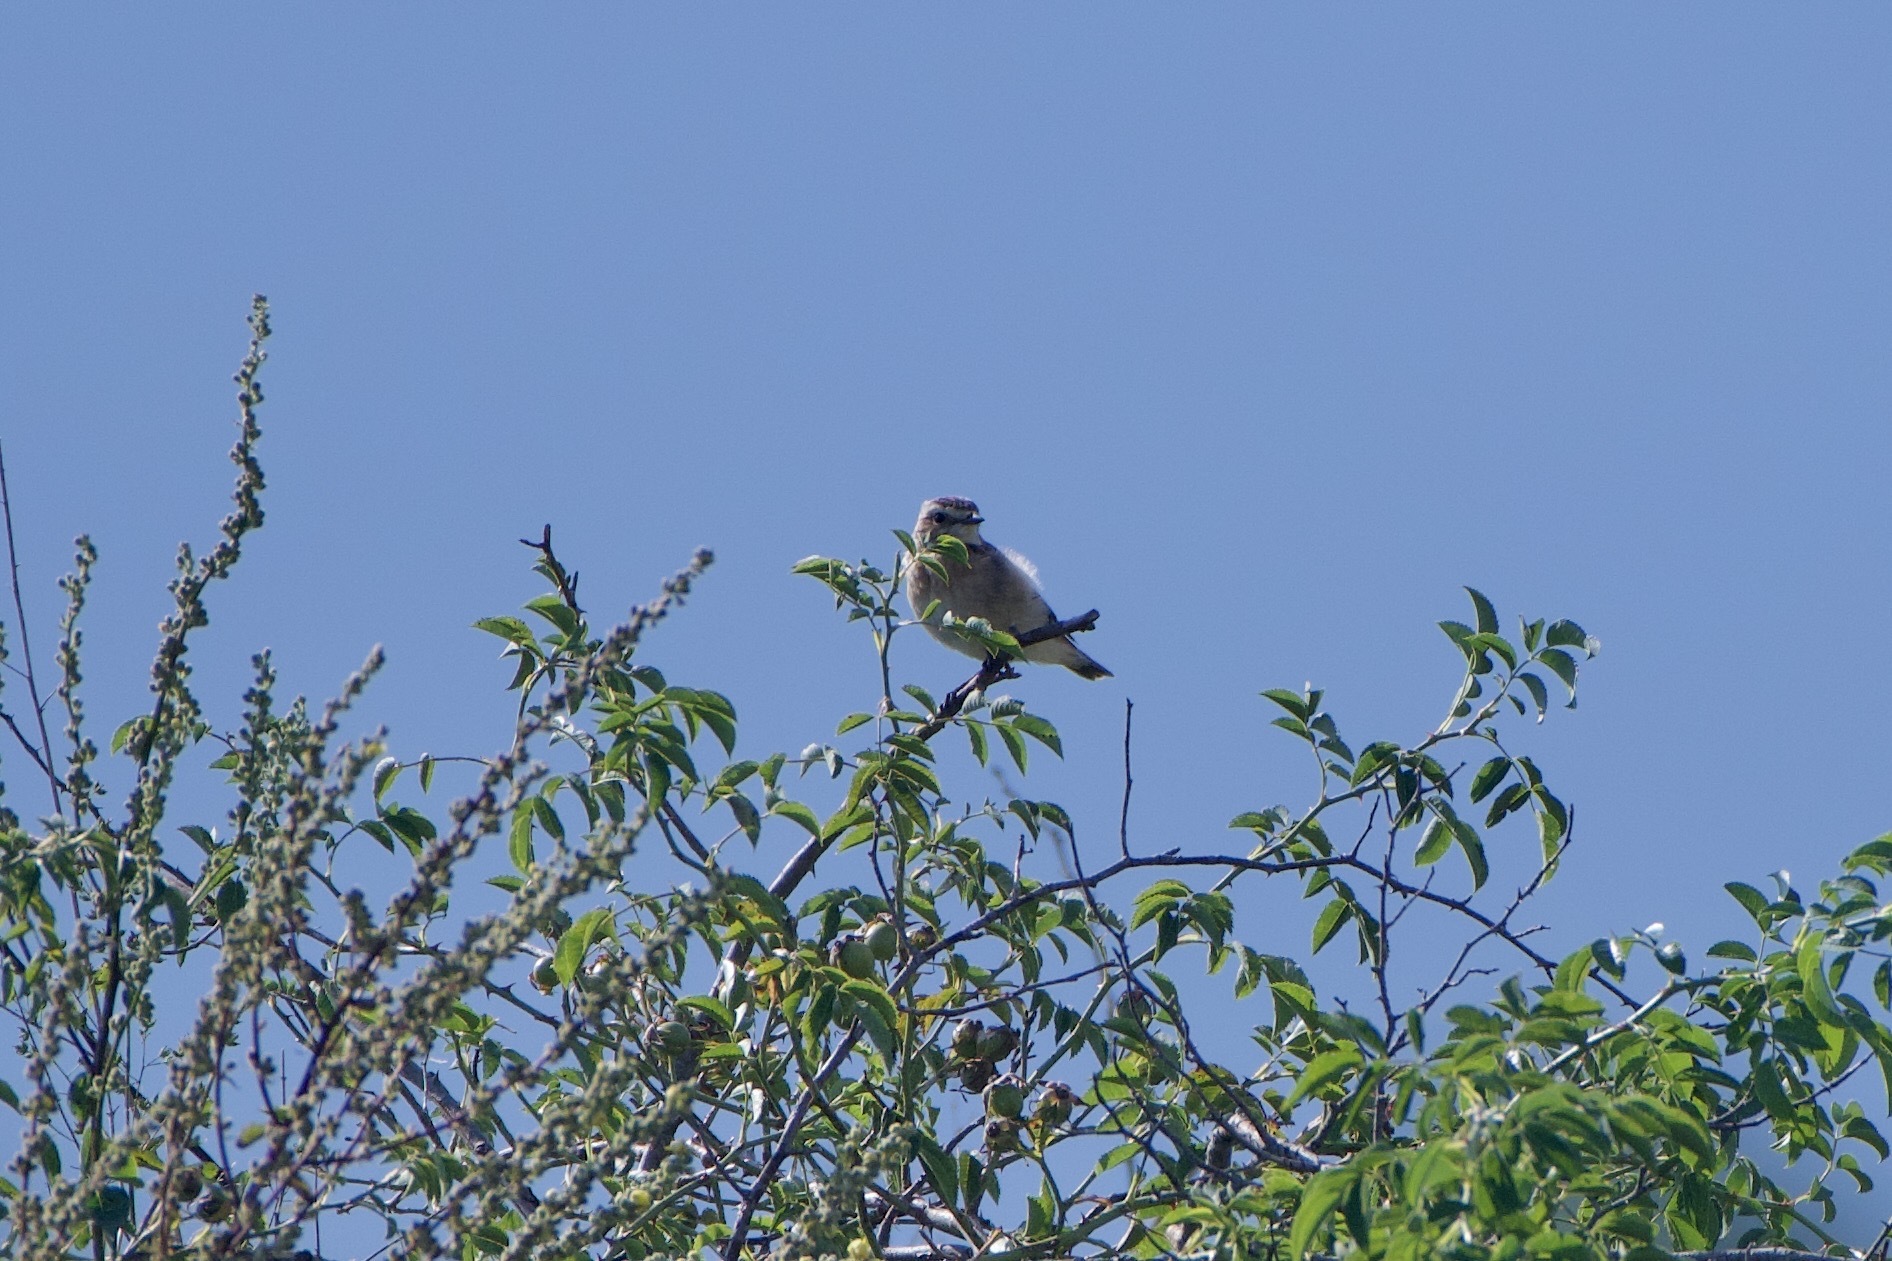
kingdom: Animalia
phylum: Chordata
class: Aves
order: Passeriformes
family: Muscicapidae
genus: Saxicola
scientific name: Saxicola rubetra
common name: Whinchat
